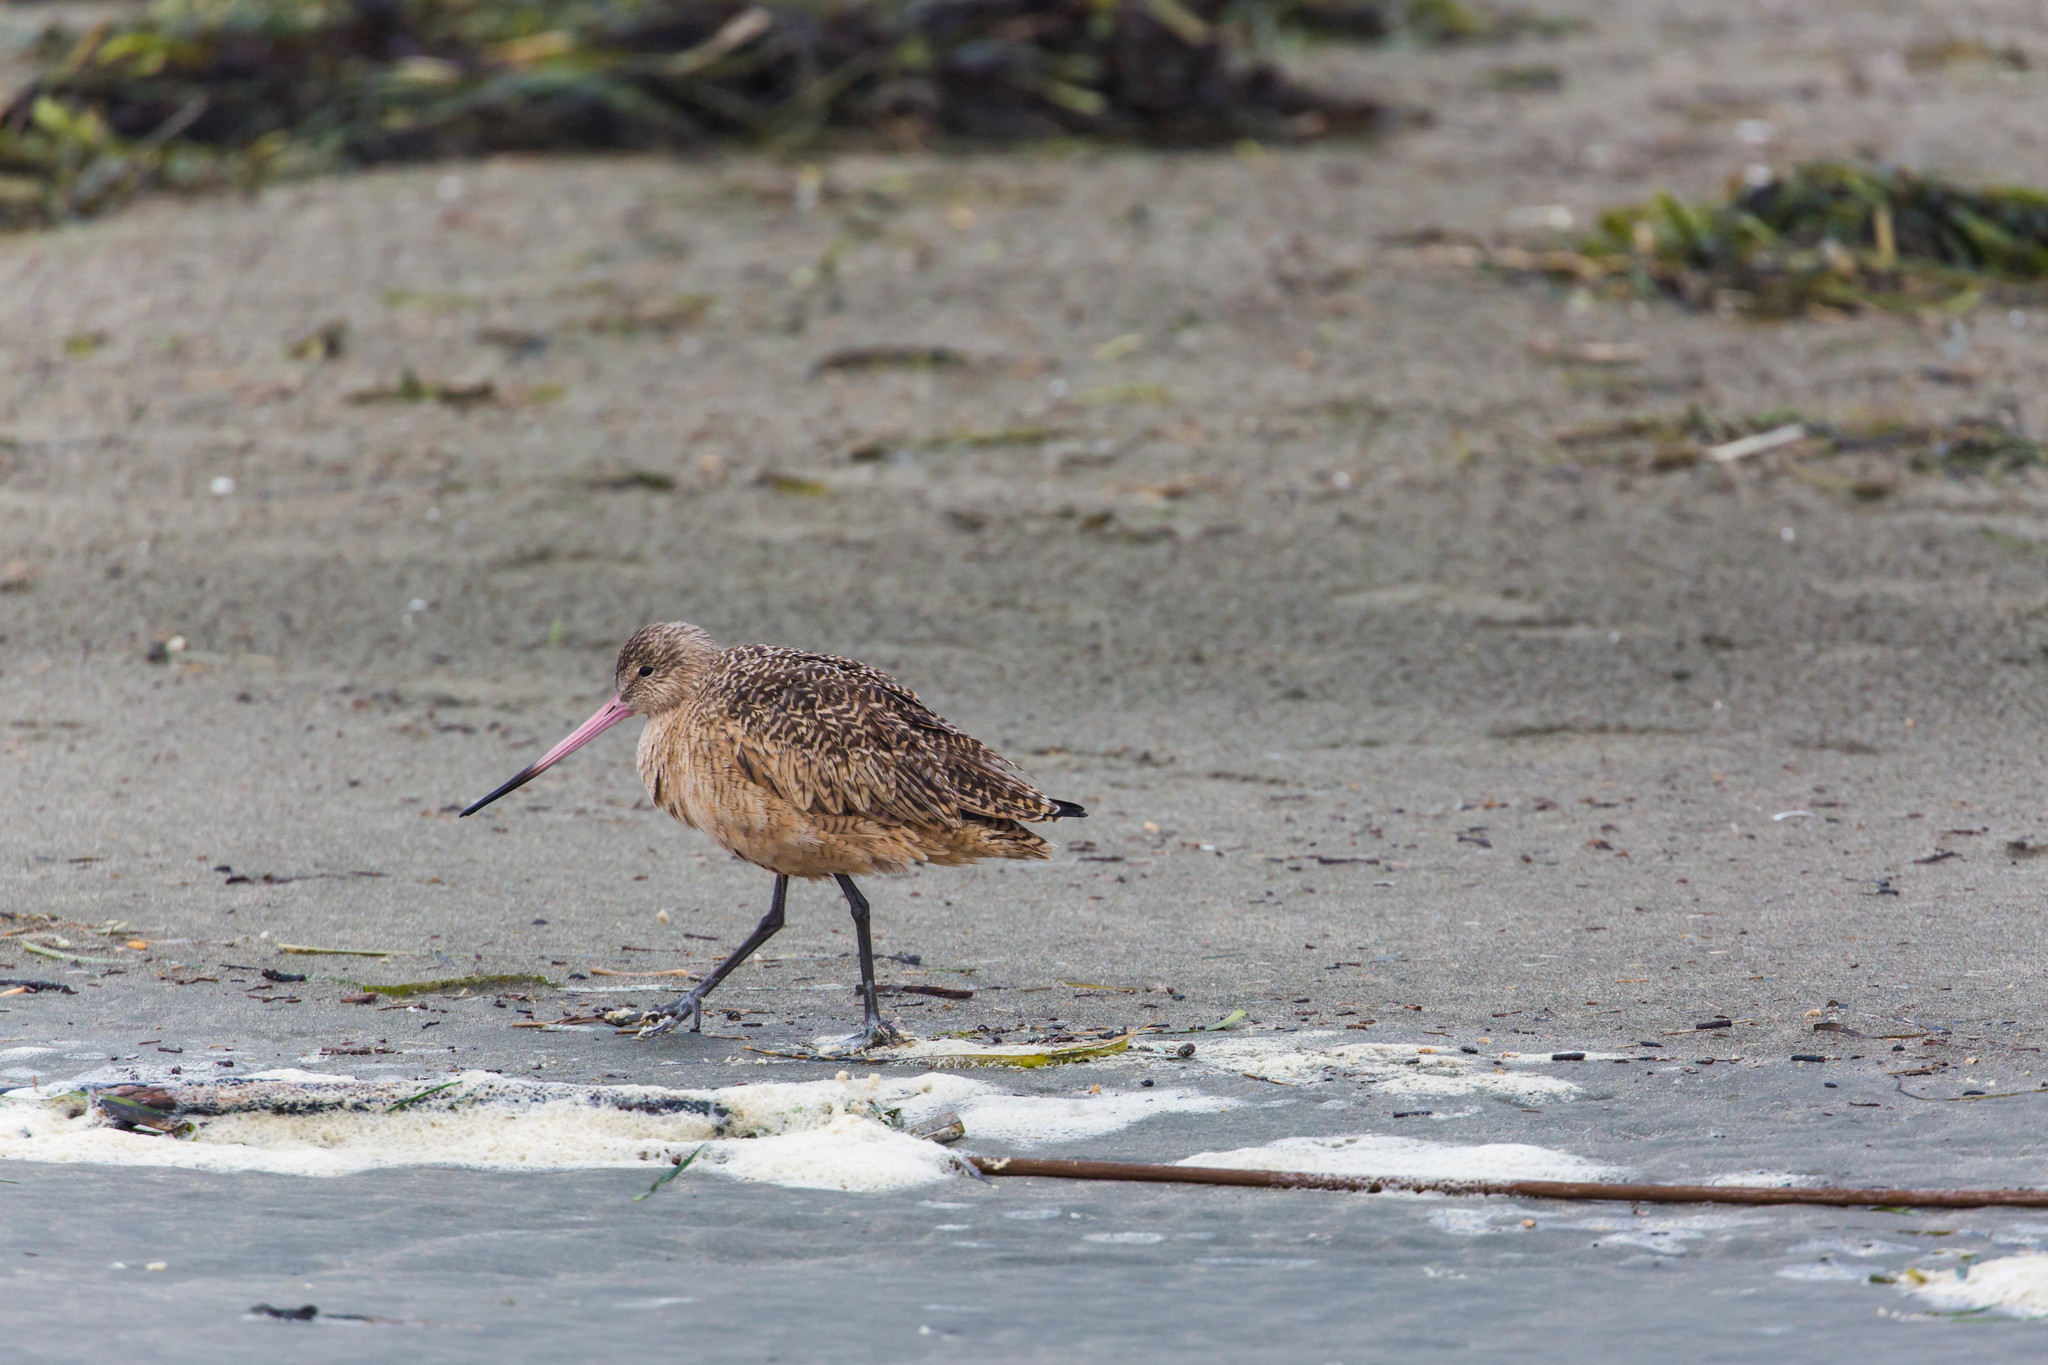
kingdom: Animalia
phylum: Chordata
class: Aves
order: Charadriiformes
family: Scolopacidae
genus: Limosa
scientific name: Limosa fedoa
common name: Marbled godwit
